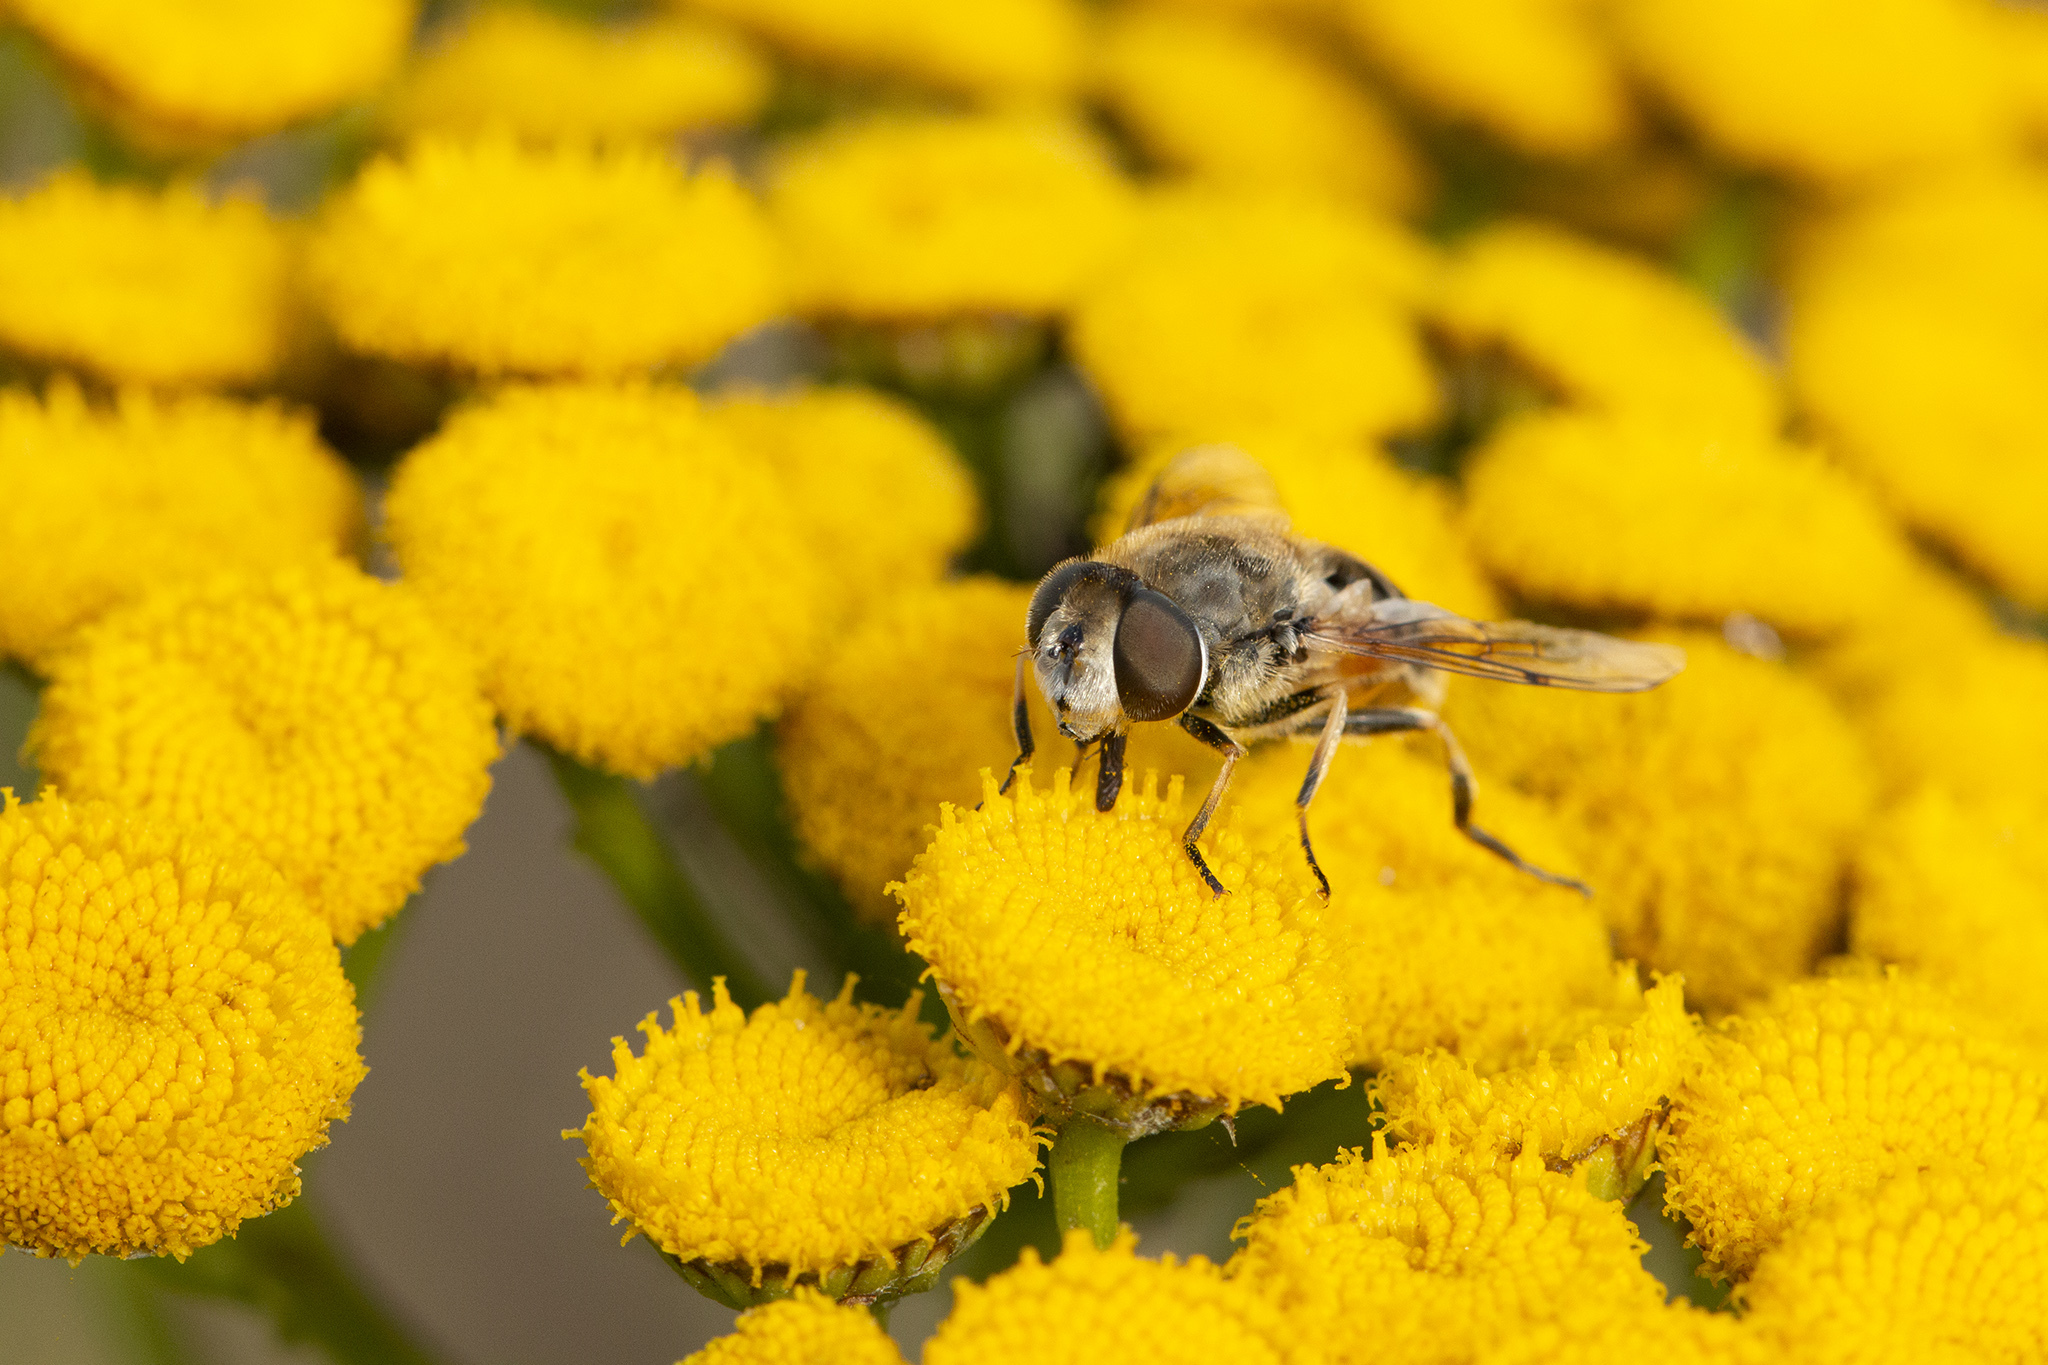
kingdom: Animalia
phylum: Arthropoda
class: Insecta
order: Diptera
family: Syrphidae
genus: Eristalis
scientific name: Eristalis arbustorum
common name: Hover fly
